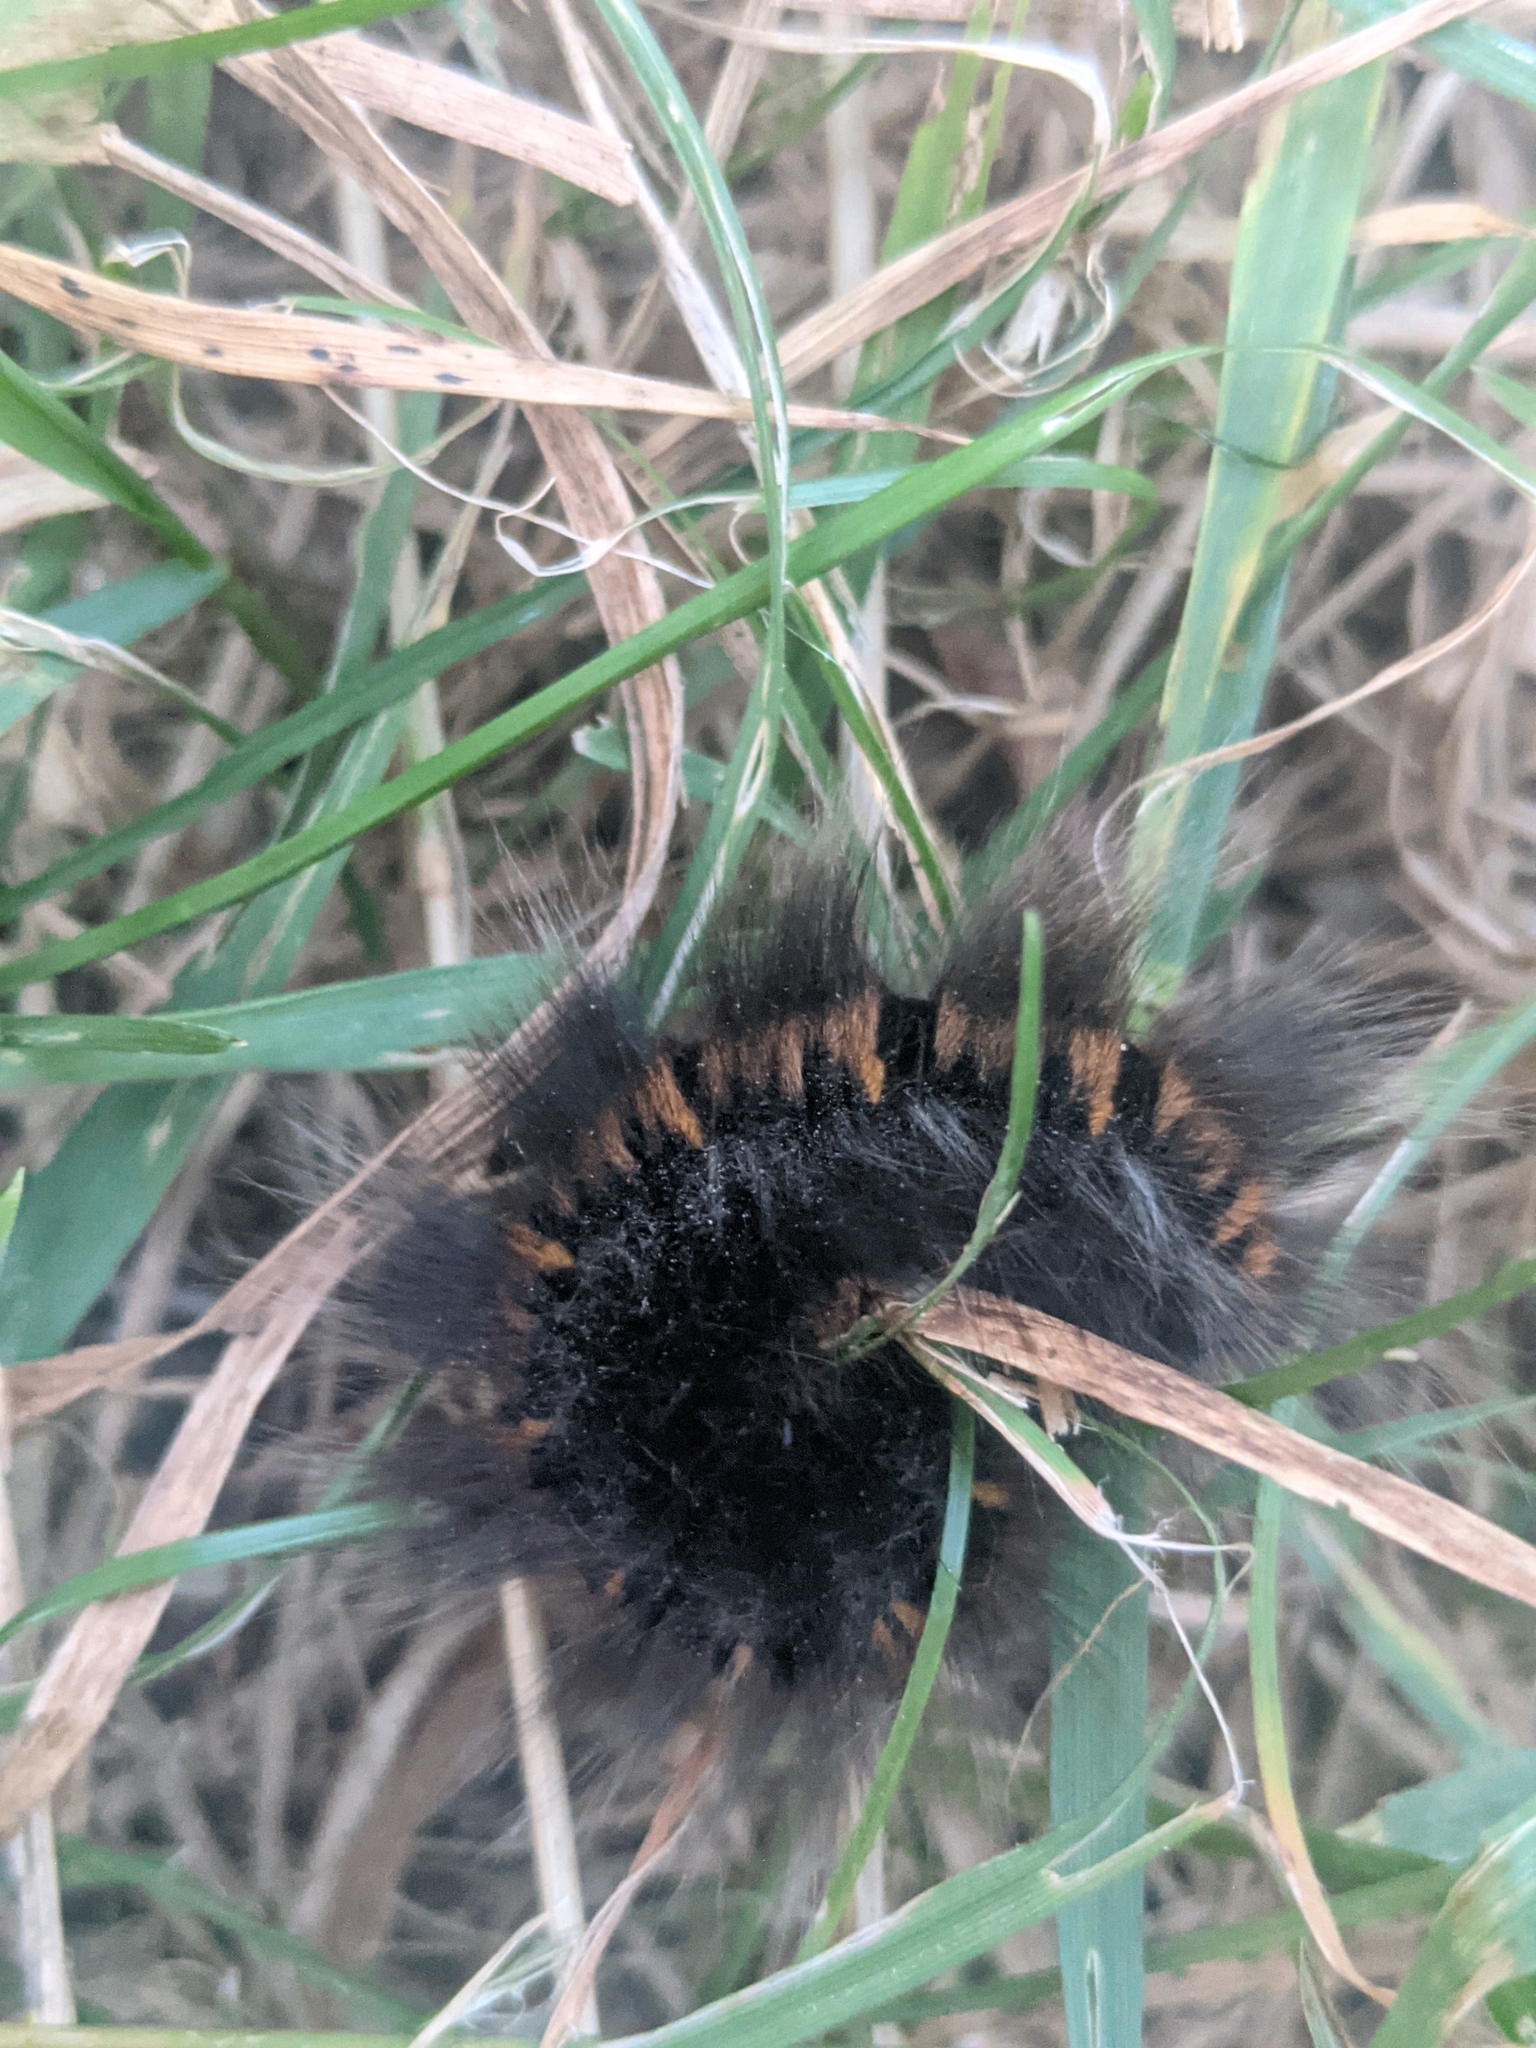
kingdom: Animalia
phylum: Arthropoda
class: Insecta
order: Lepidoptera
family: Lasiocampidae
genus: Macrothylacia
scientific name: Macrothylacia rubi
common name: Fox moth
